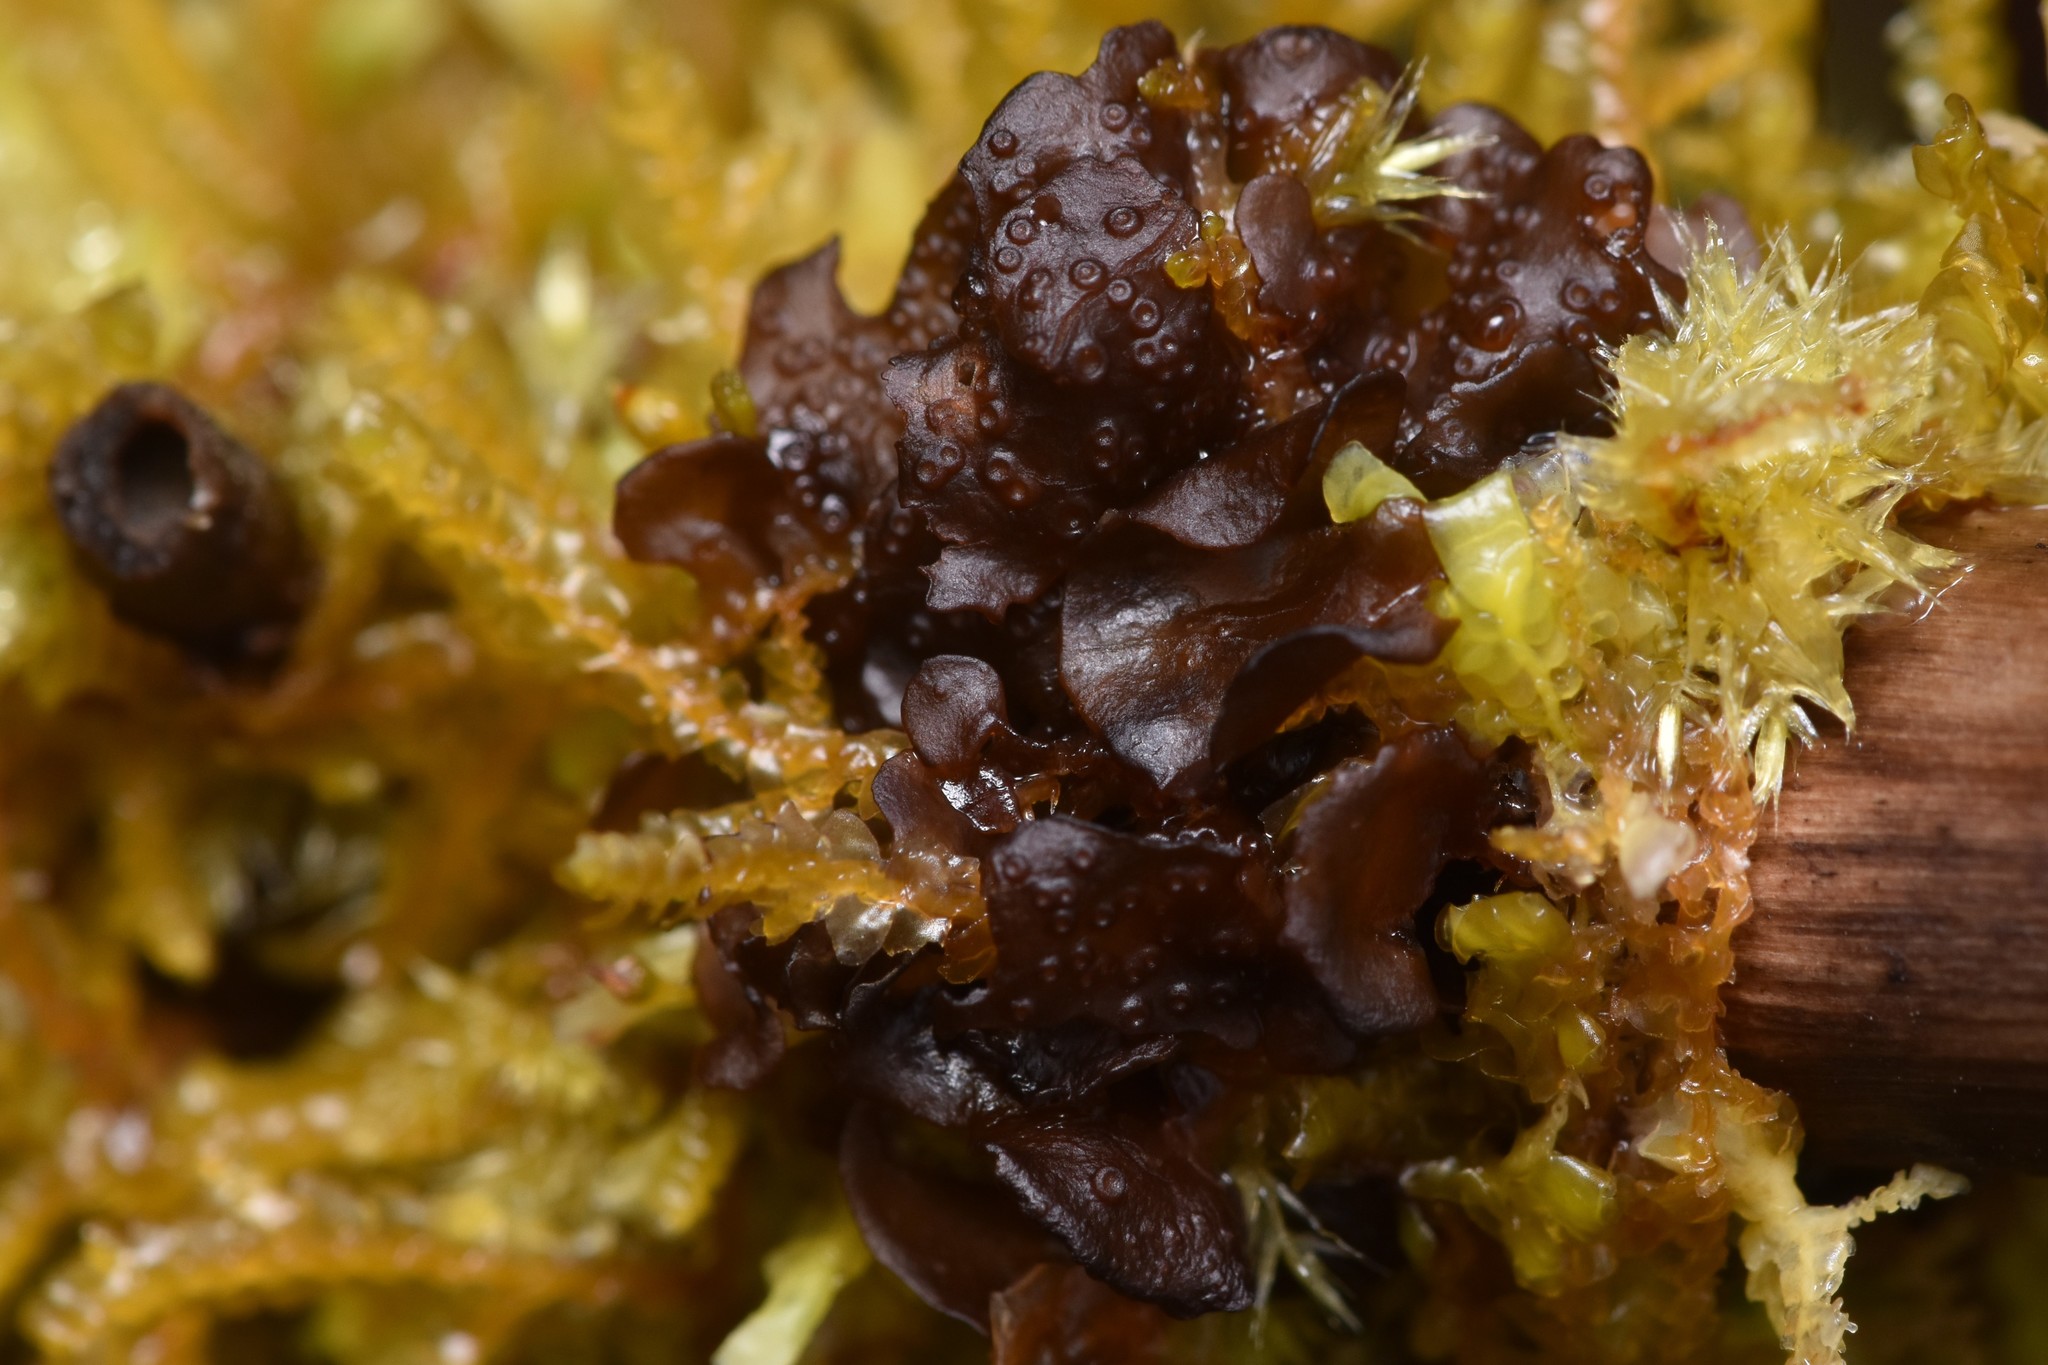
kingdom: Fungi
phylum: Ascomycota
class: Lecanoromycetes
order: Peltigerales
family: Collemataceae
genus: Scytinium
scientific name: Scytinium polycarpum
